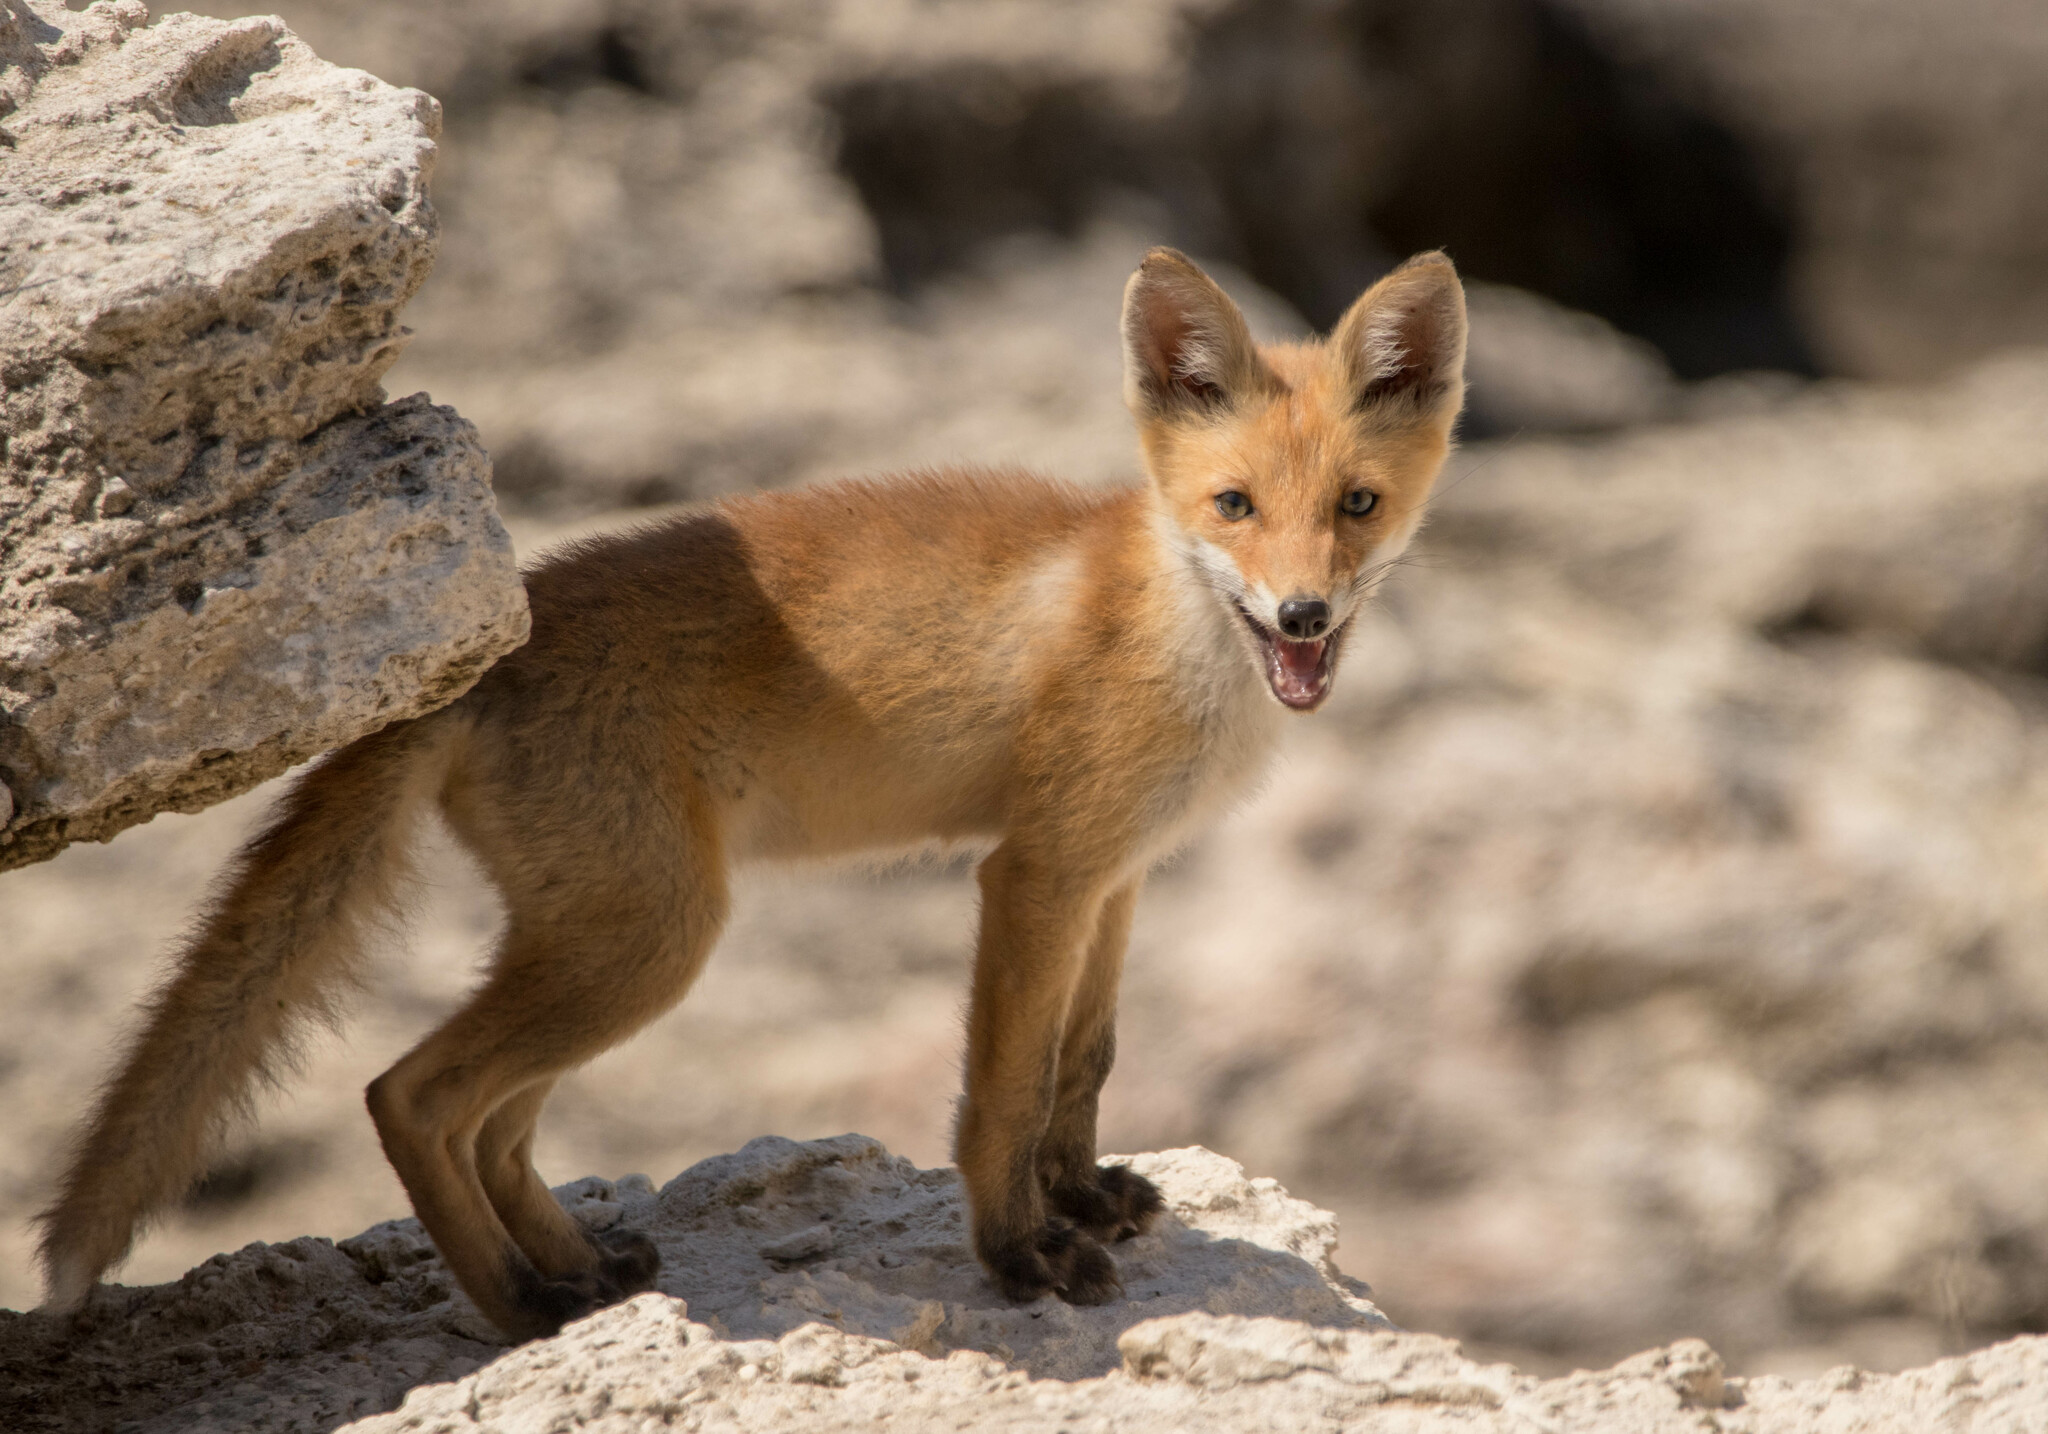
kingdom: Animalia
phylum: Chordata
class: Mammalia
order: Carnivora
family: Canidae
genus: Vulpes
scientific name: Vulpes vulpes
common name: Red fox
